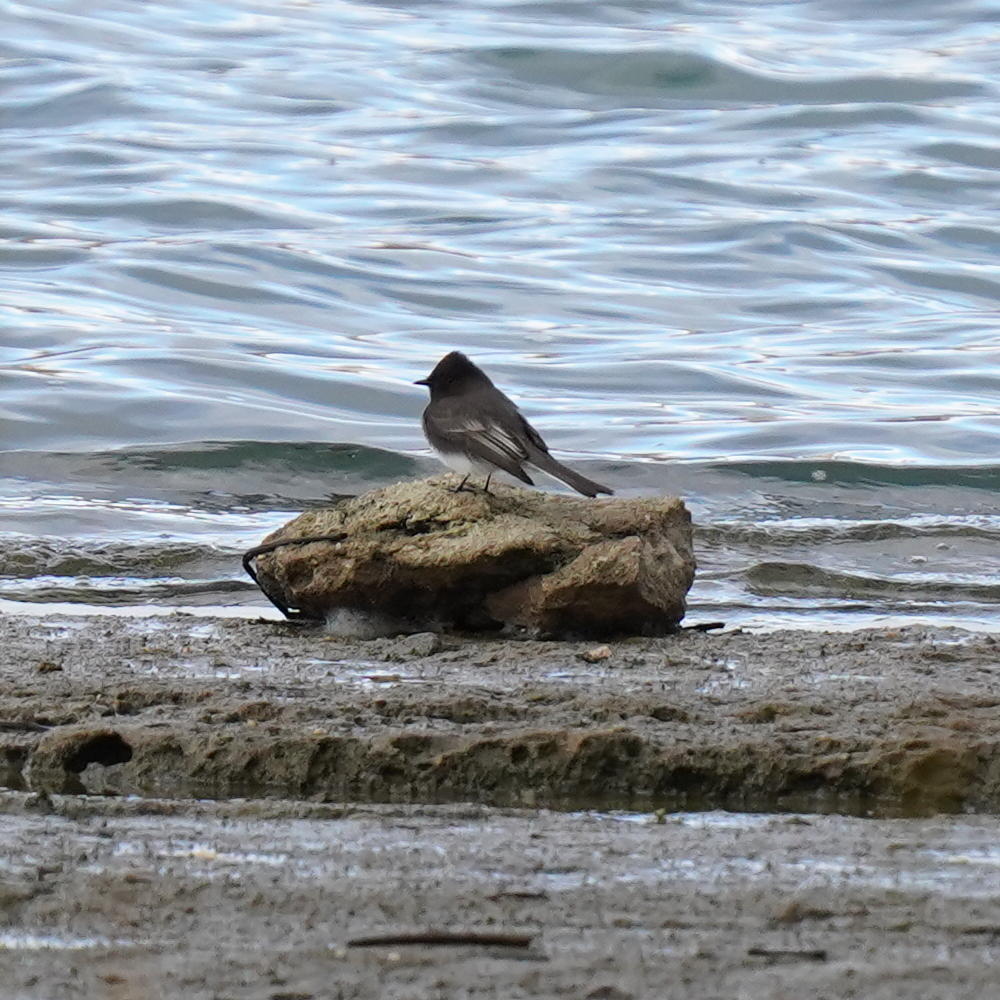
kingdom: Animalia
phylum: Chordata
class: Aves
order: Passeriformes
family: Tyrannidae
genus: Sayornis
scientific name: Sayornis nigricans
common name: Black phoebe
